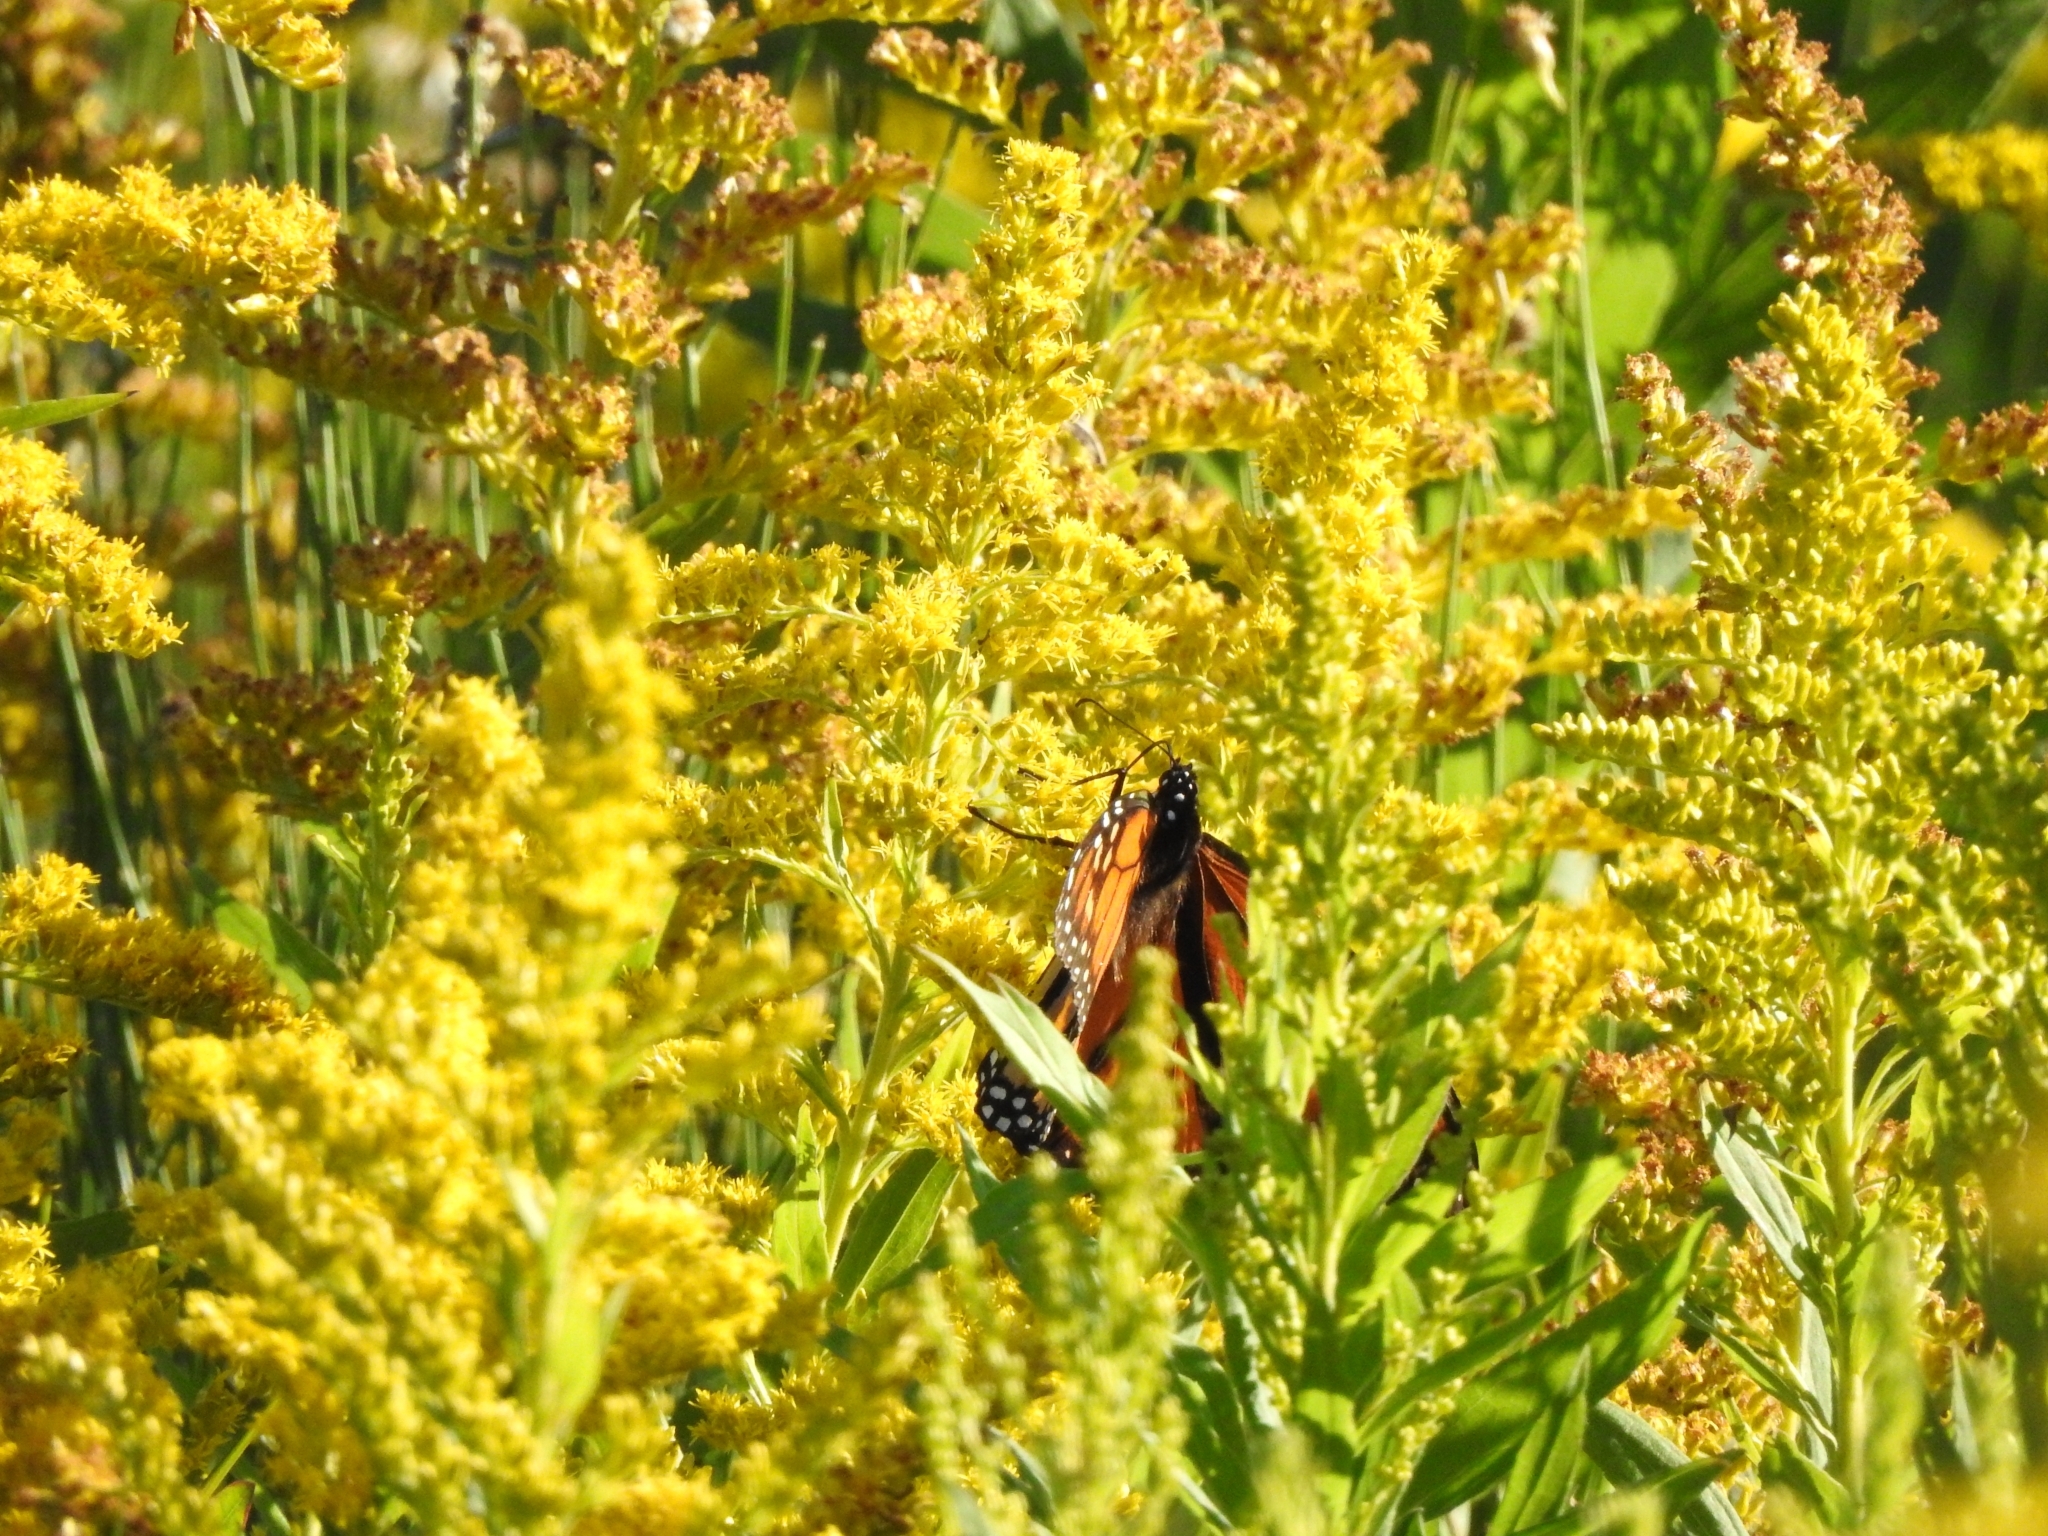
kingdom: Animalia
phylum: Arthropoda
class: Insecta
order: Lepidoptera
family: Nymphalidae
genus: Danaus
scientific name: Danaus plexippus
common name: Monarch
